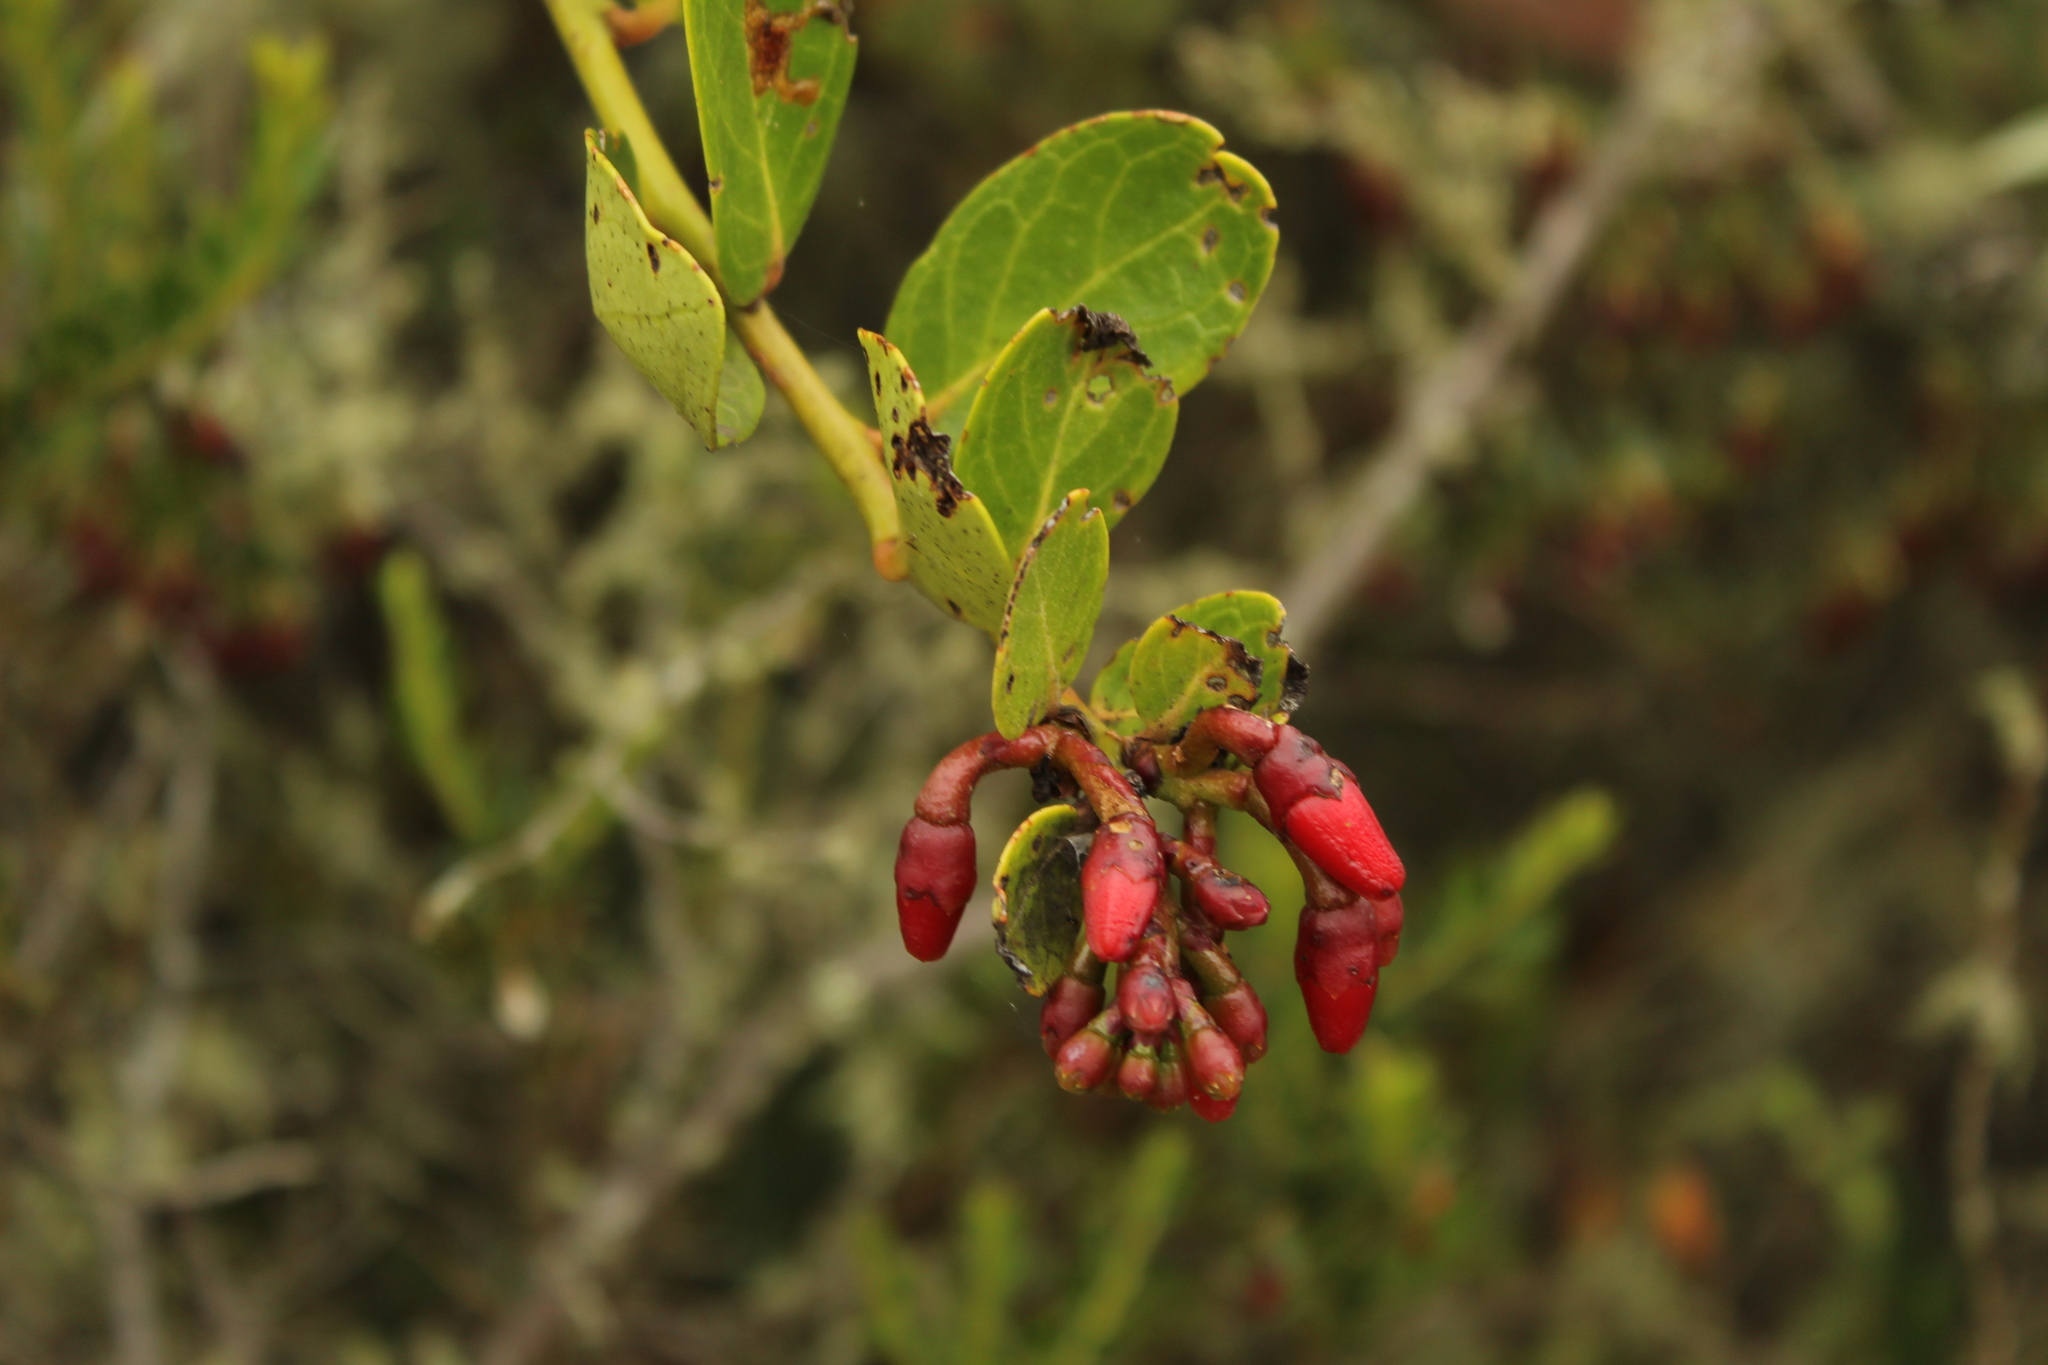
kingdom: Plantae
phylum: Tracheophyta
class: Magnoliopsida
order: Ericales
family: Ericaceae
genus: Macleania
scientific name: Macleania rupestris
